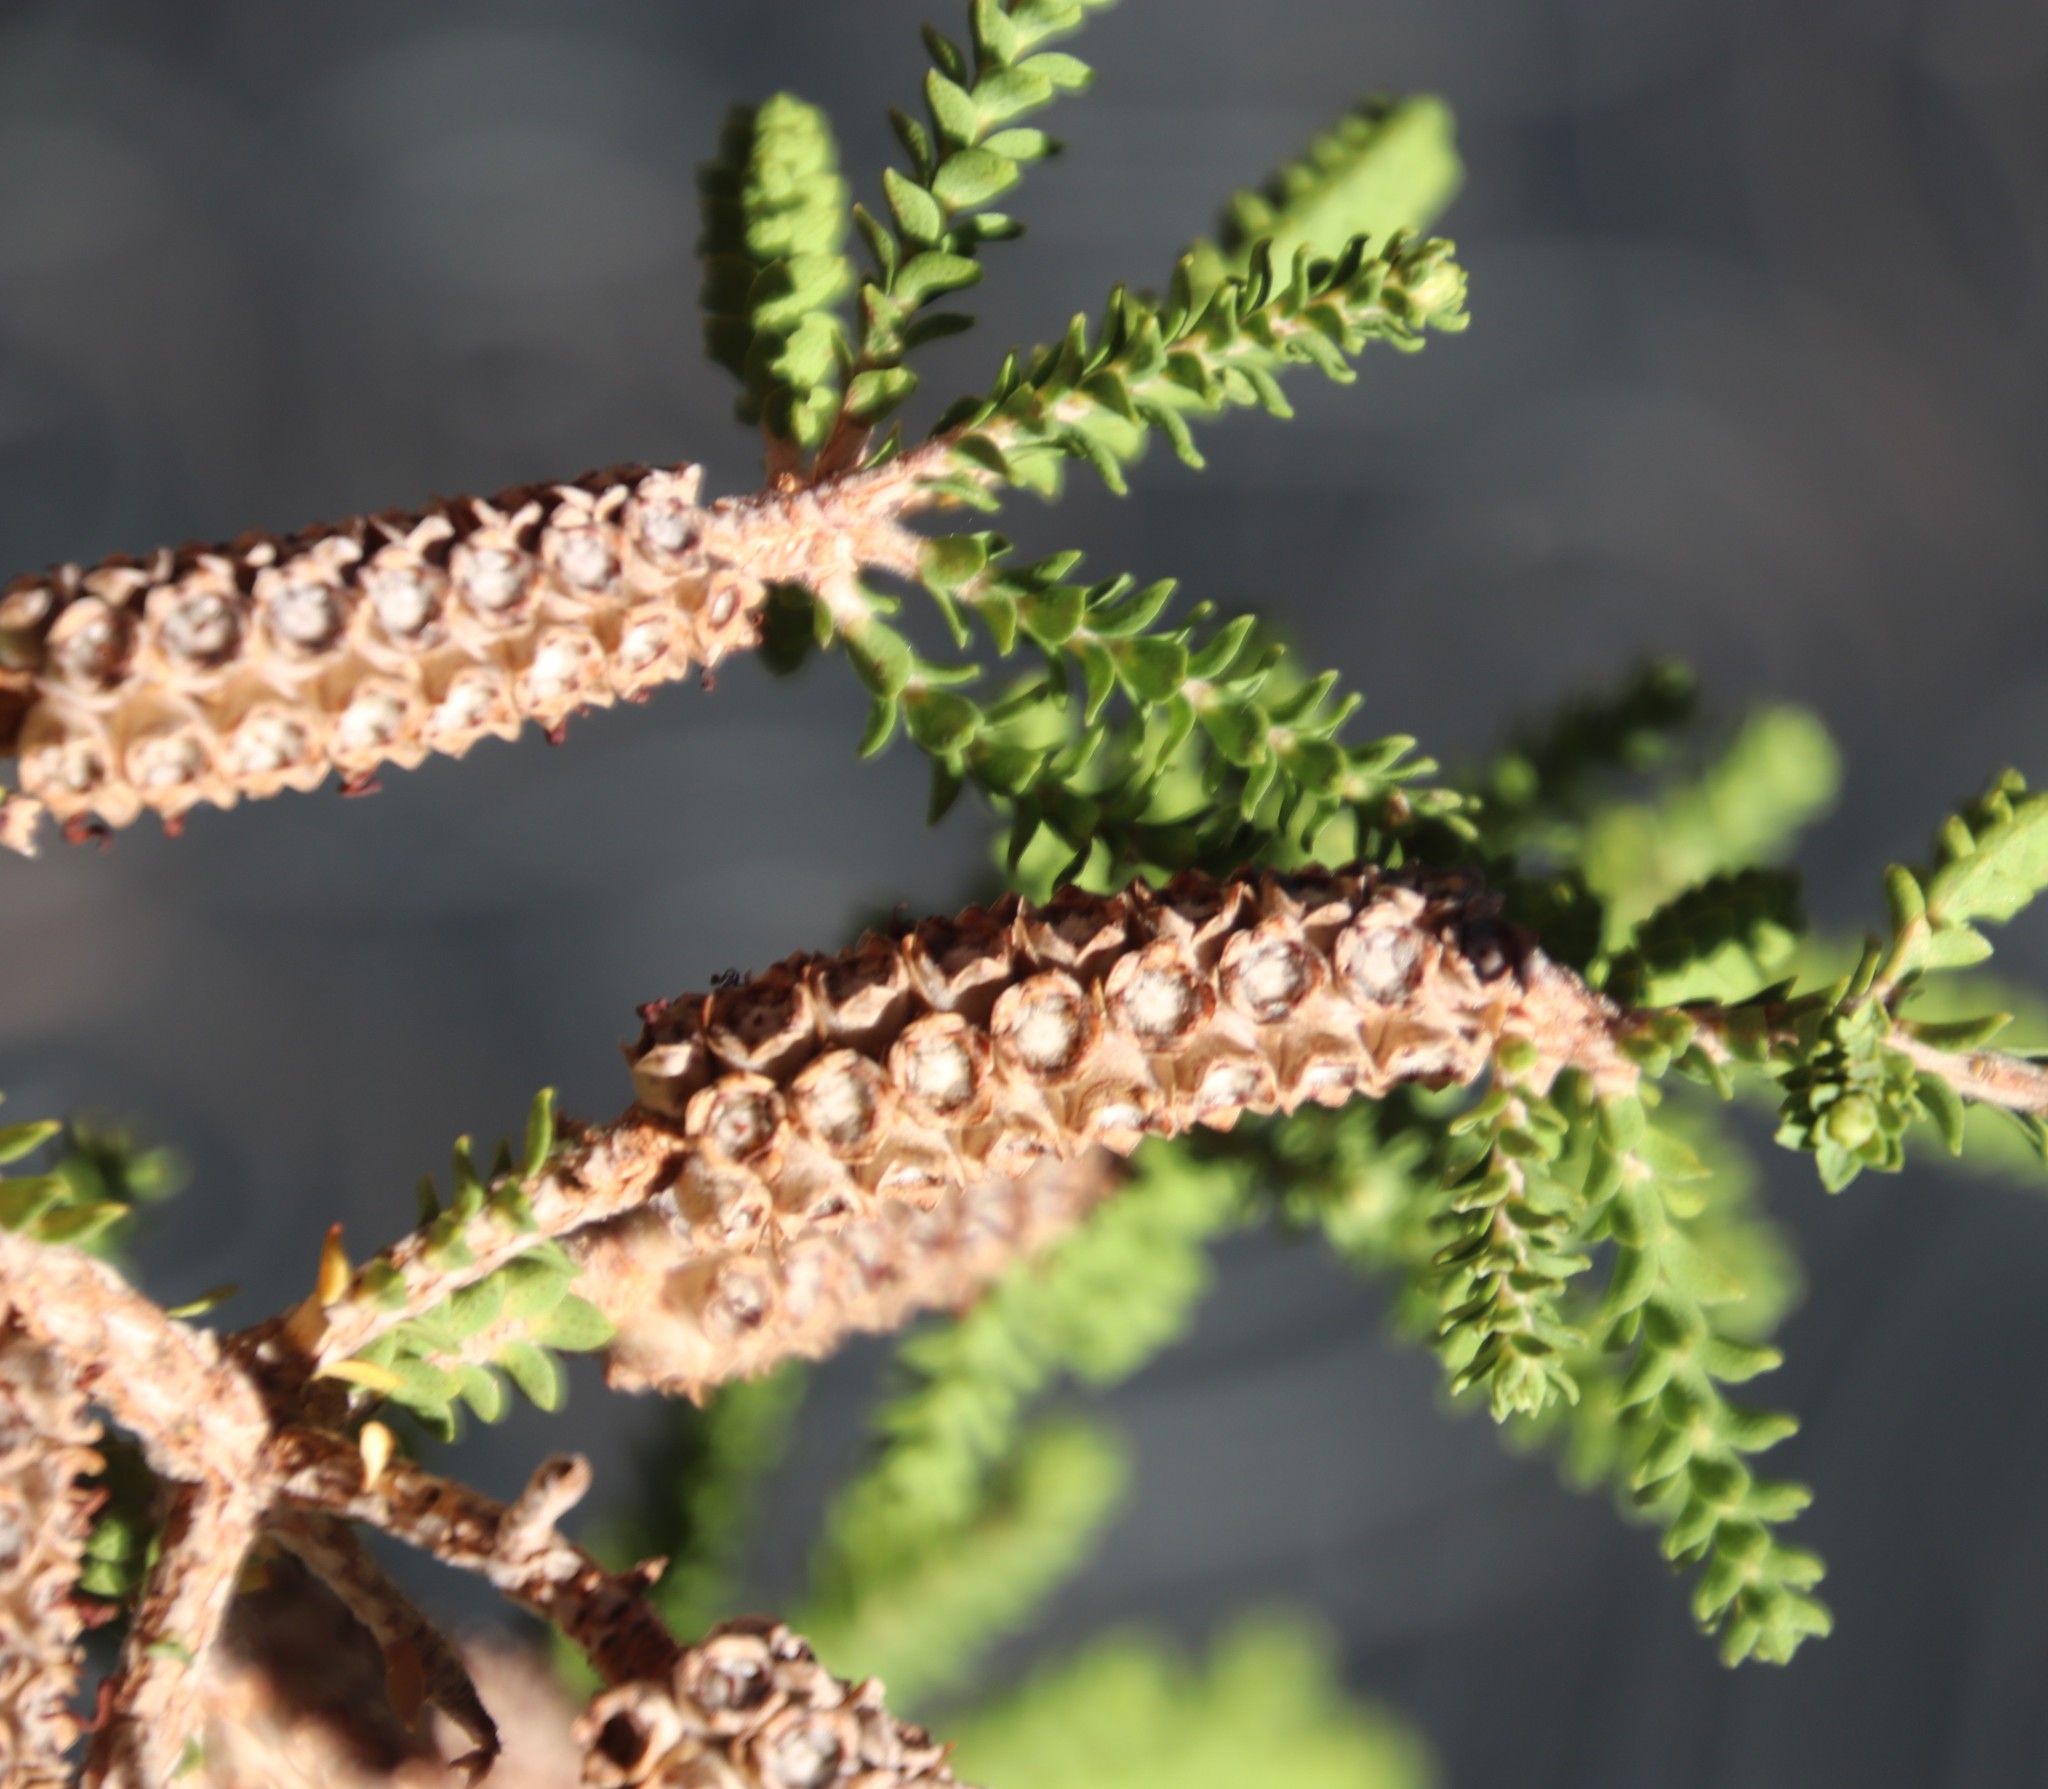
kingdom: Plantae
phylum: Tracheophyta
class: Magnoliopsida
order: Myrtales
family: Myrtaceae
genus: Melaleuca
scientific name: Melaleuca densa
